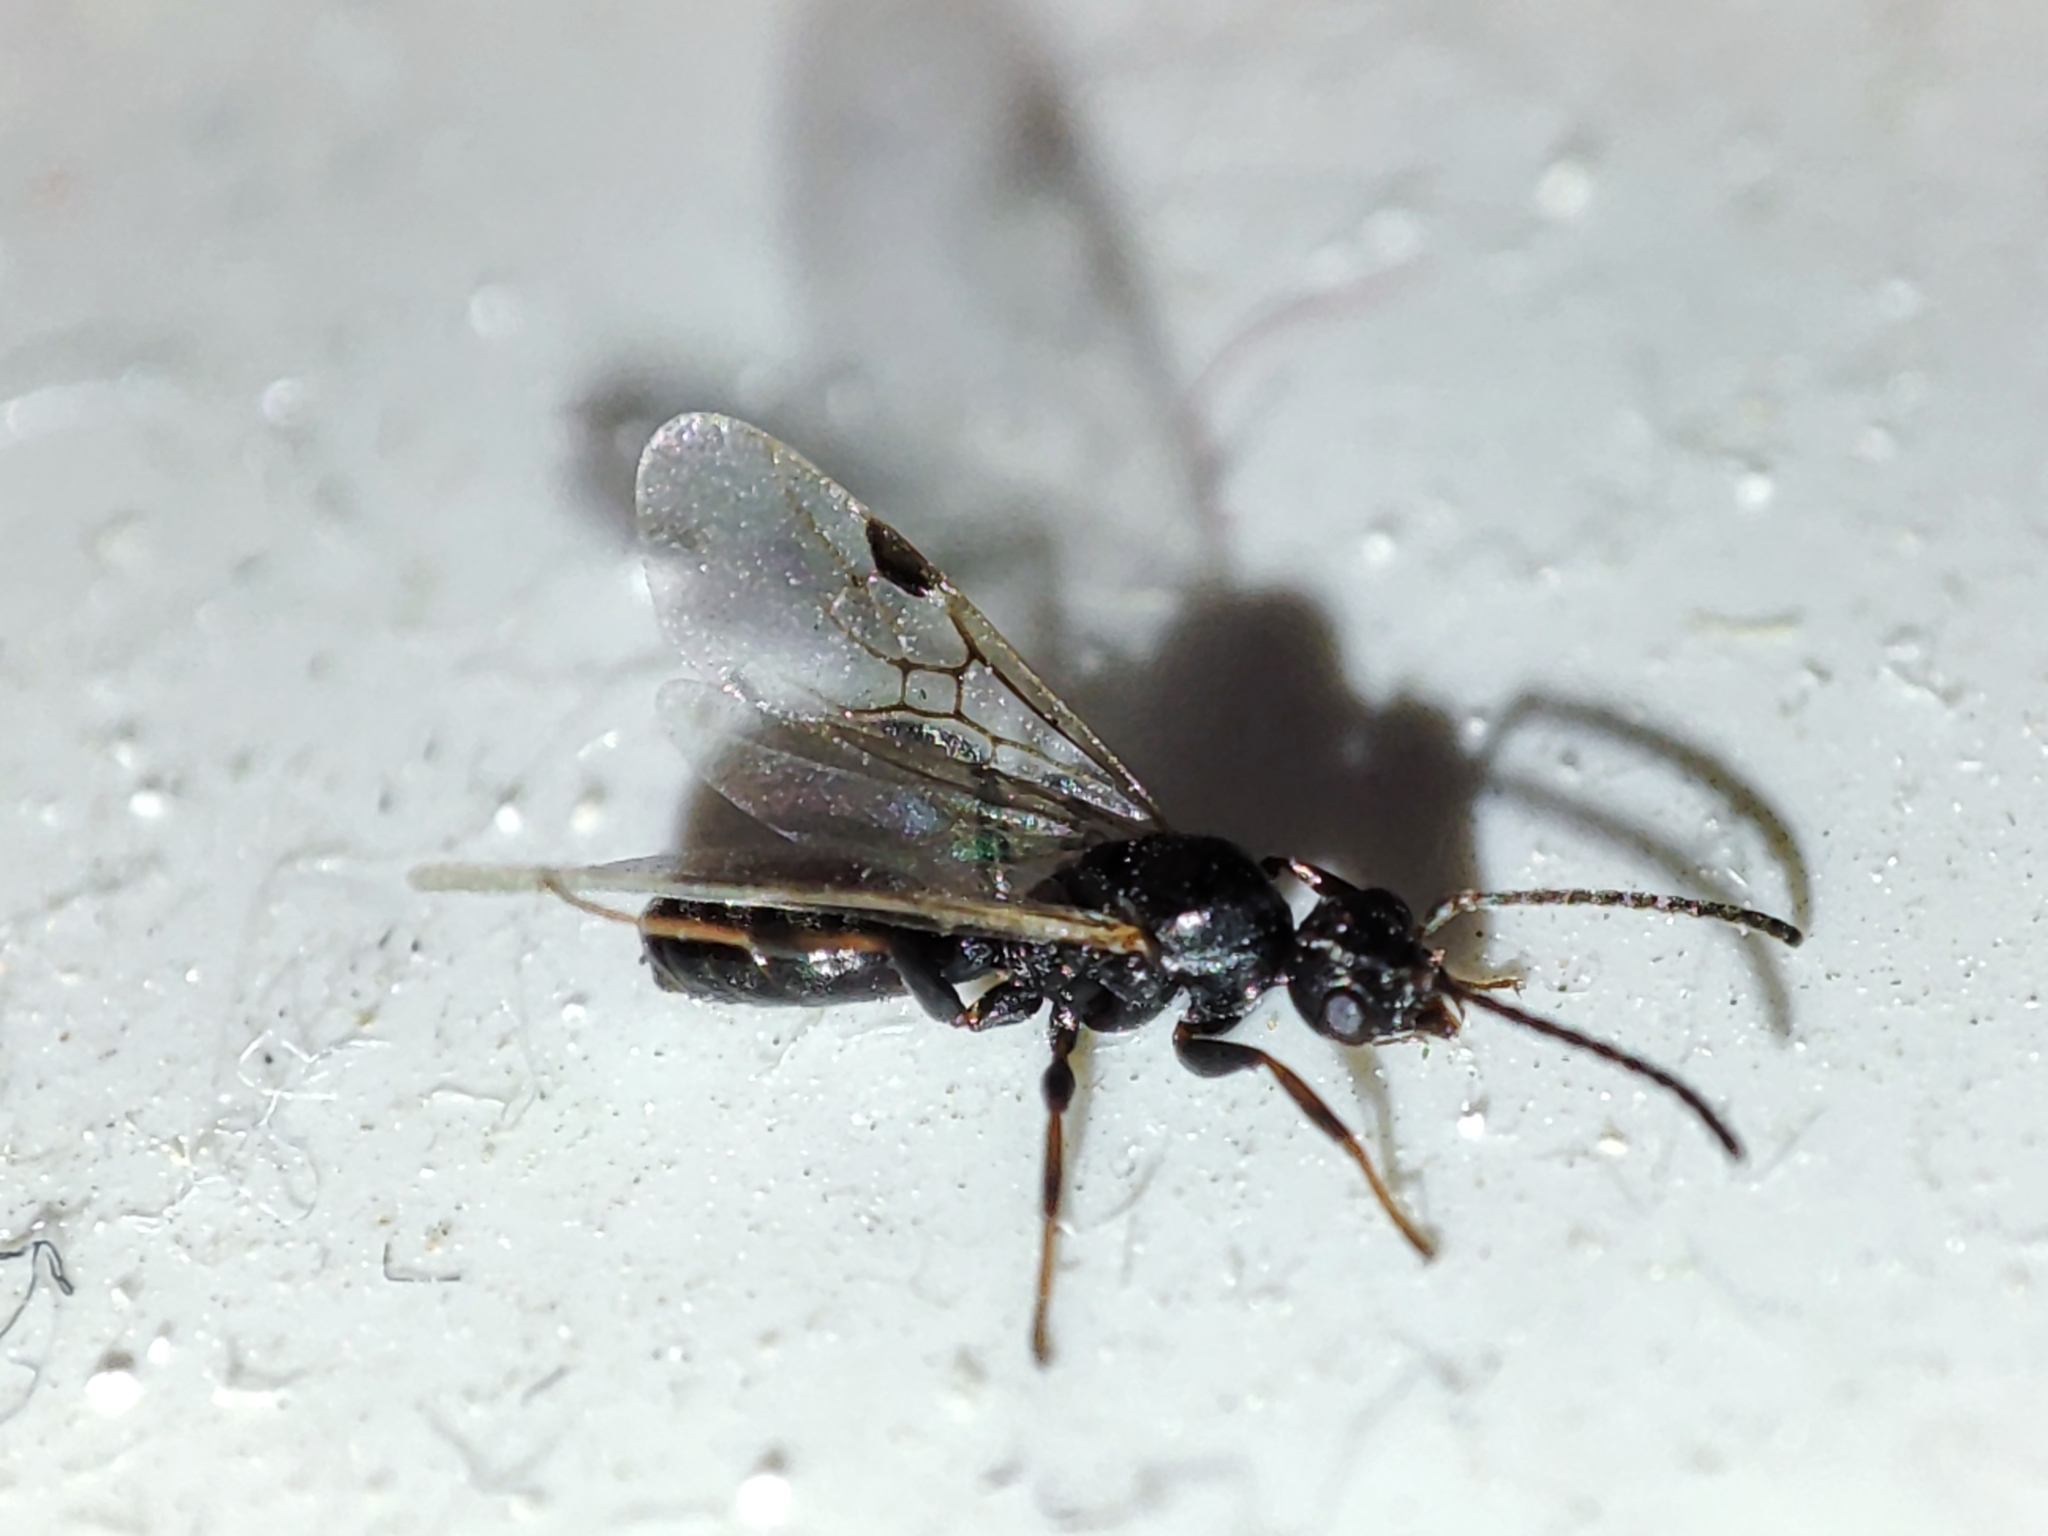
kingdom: Animalia
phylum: Arthropoda
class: Insecta
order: Hymenoptera
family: Formicidae
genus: Dolichoderus
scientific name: Dolichoderus quadripunctatus
